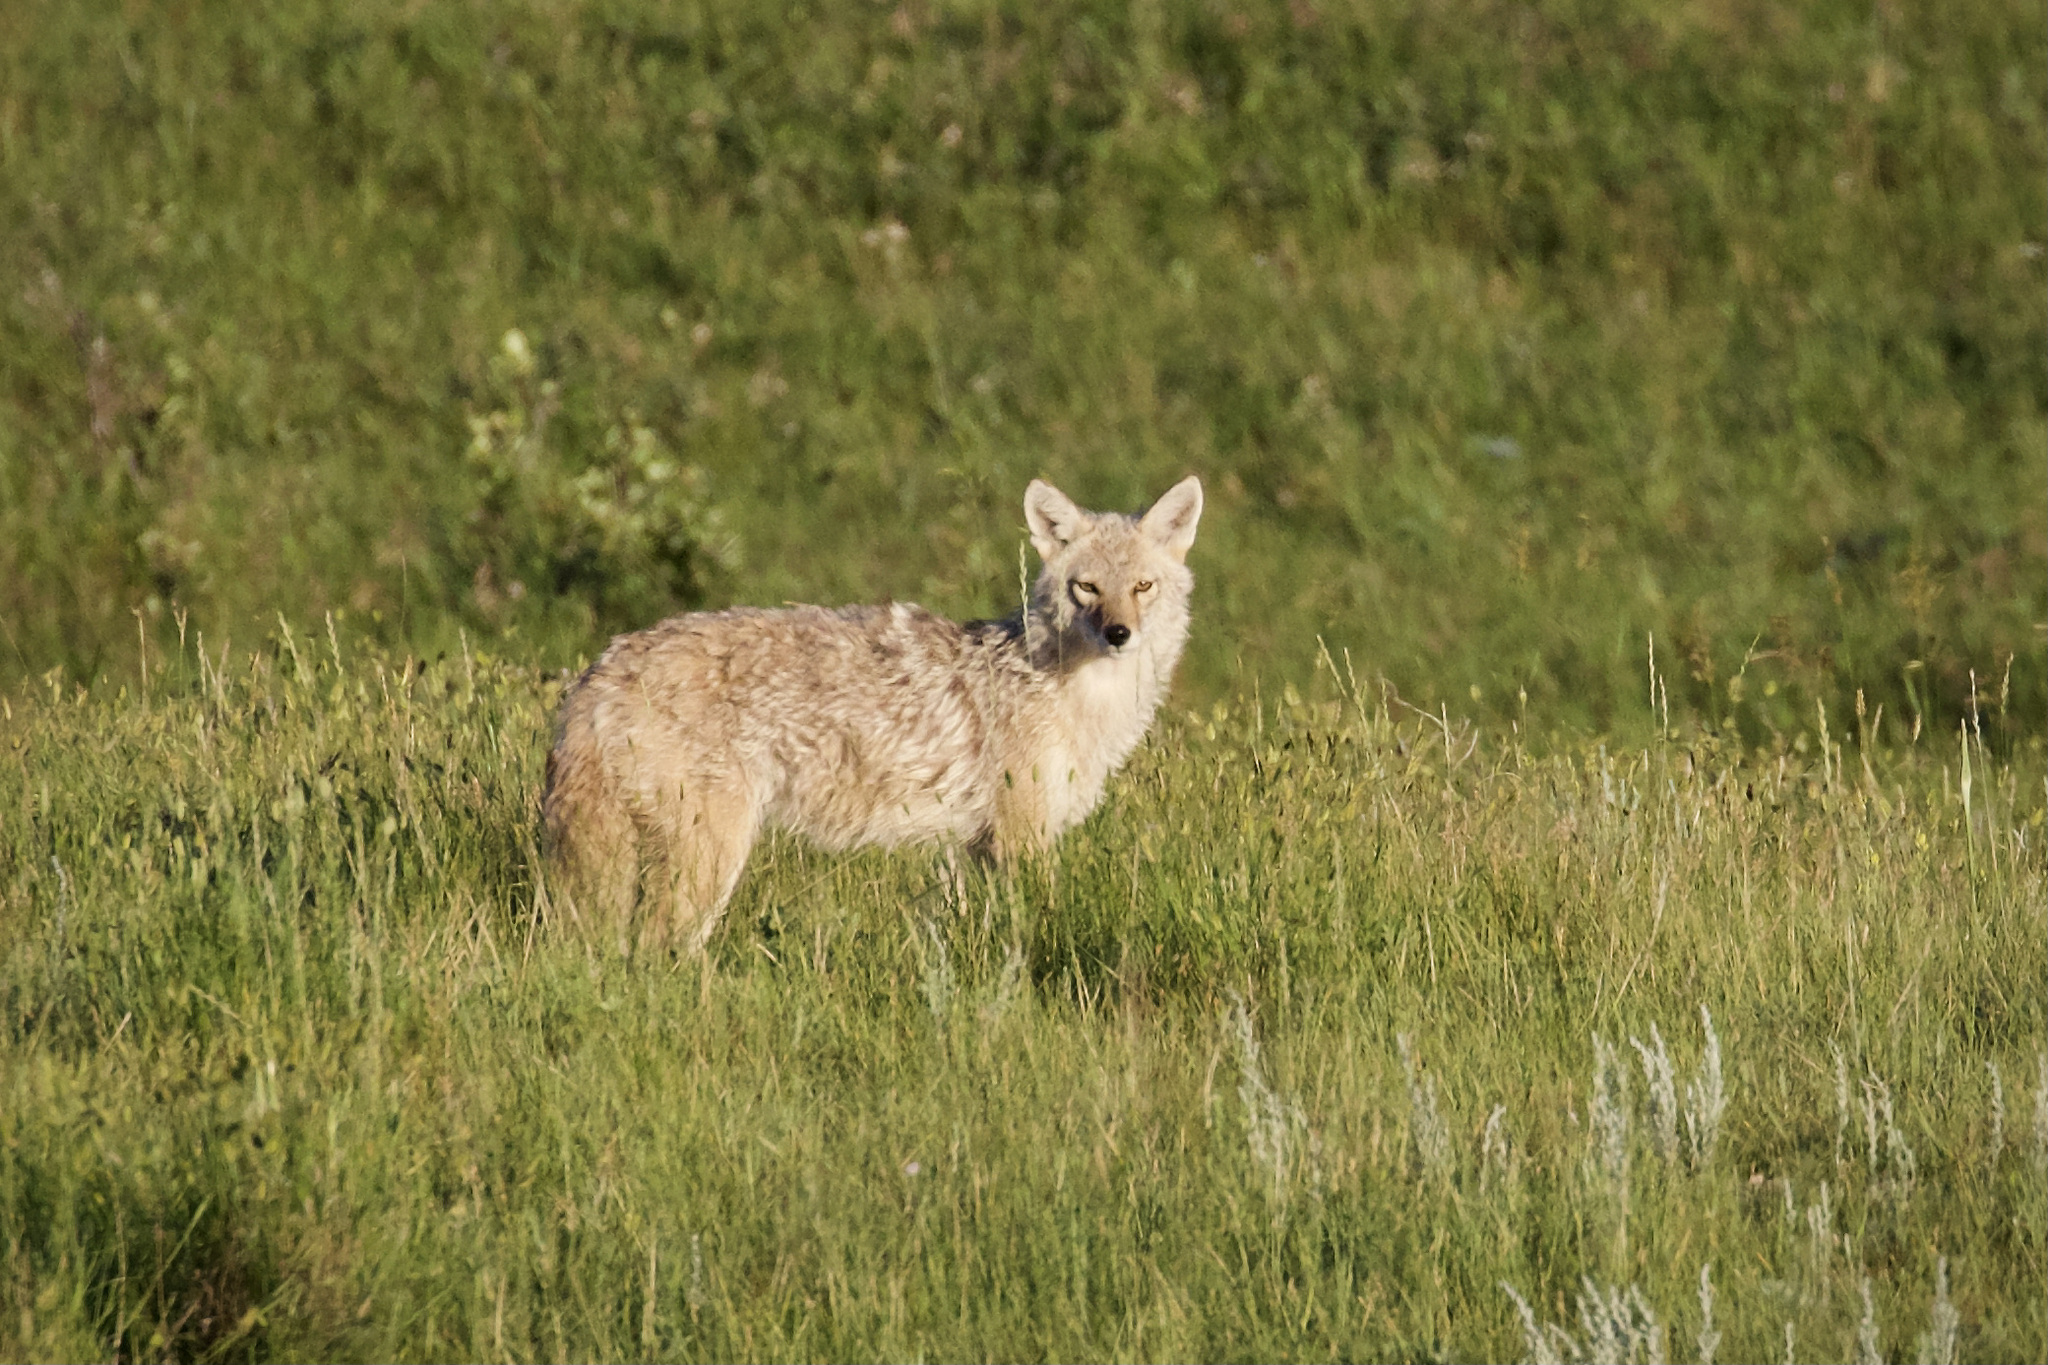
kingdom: Animalia
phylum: Chordata
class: Mammalia
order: Carnivora
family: Canidae
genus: Canis
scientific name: Canis latrans
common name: Coyote
